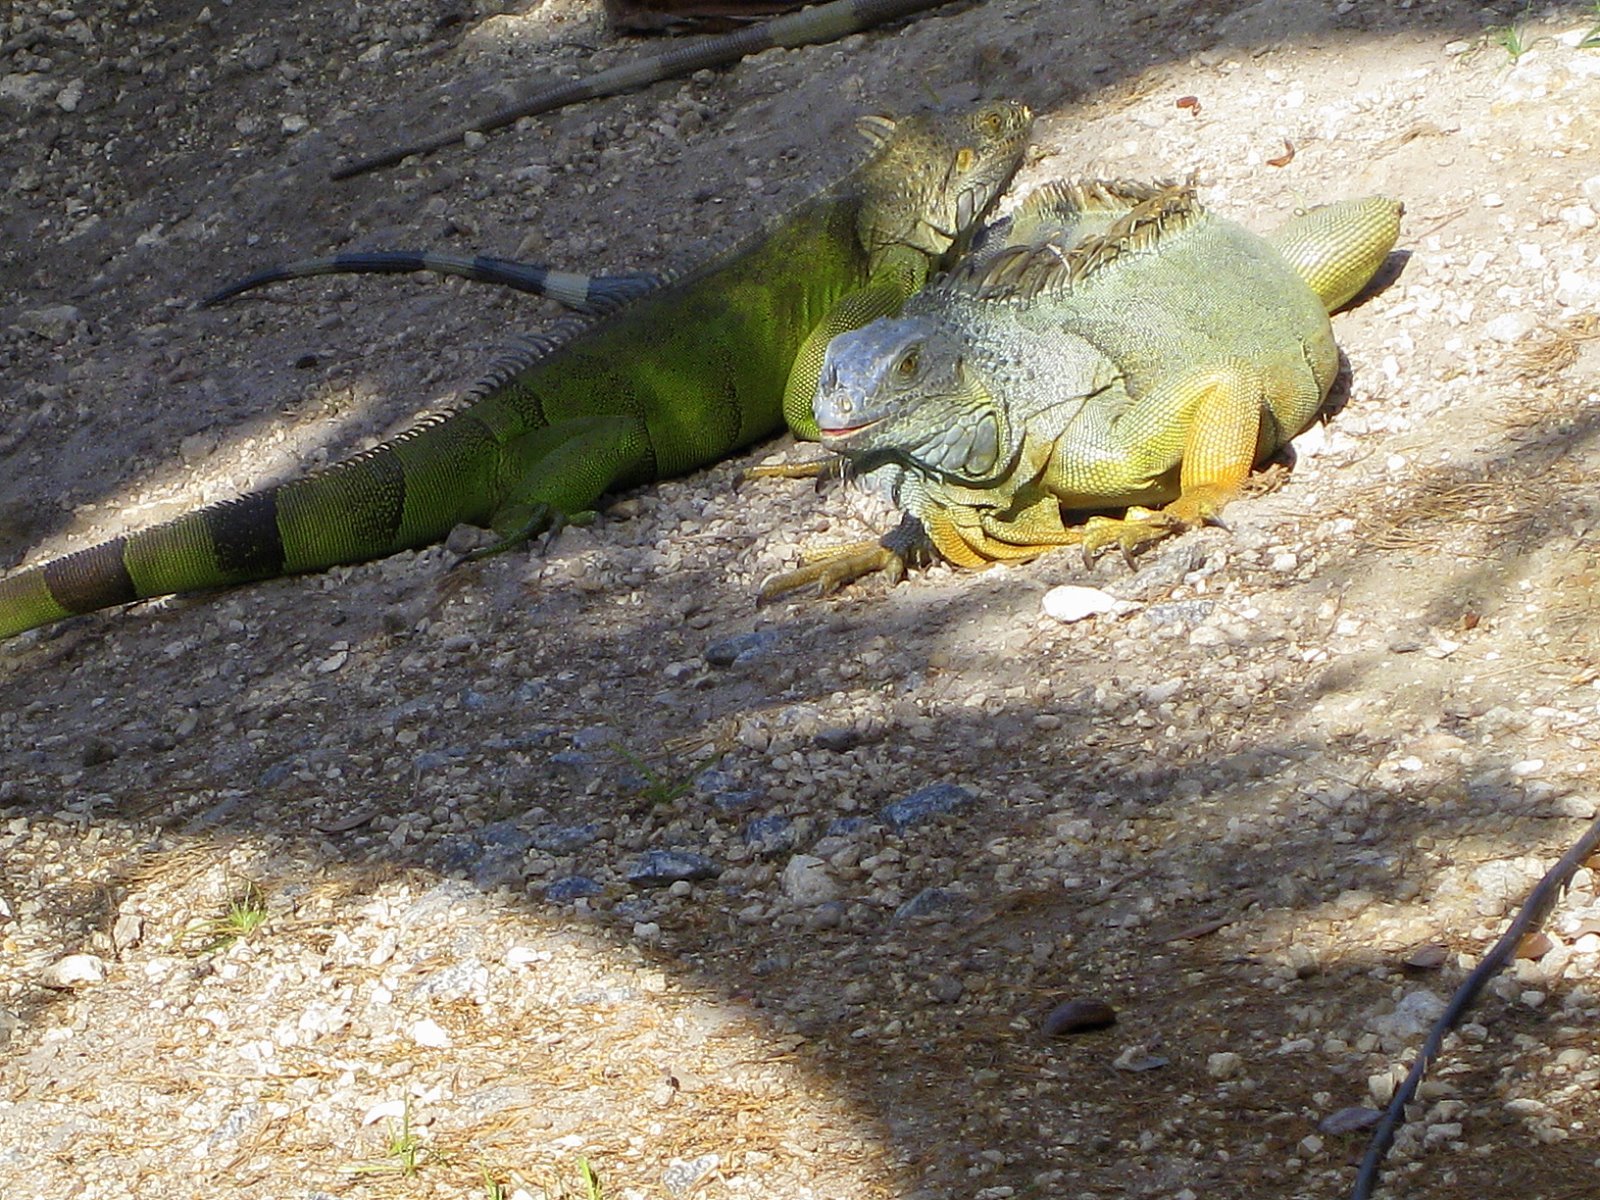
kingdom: Animalia
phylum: Chordata
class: Squamata
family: Iguanidae
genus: Iguana
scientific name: Iguana iguana
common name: Green iguana
